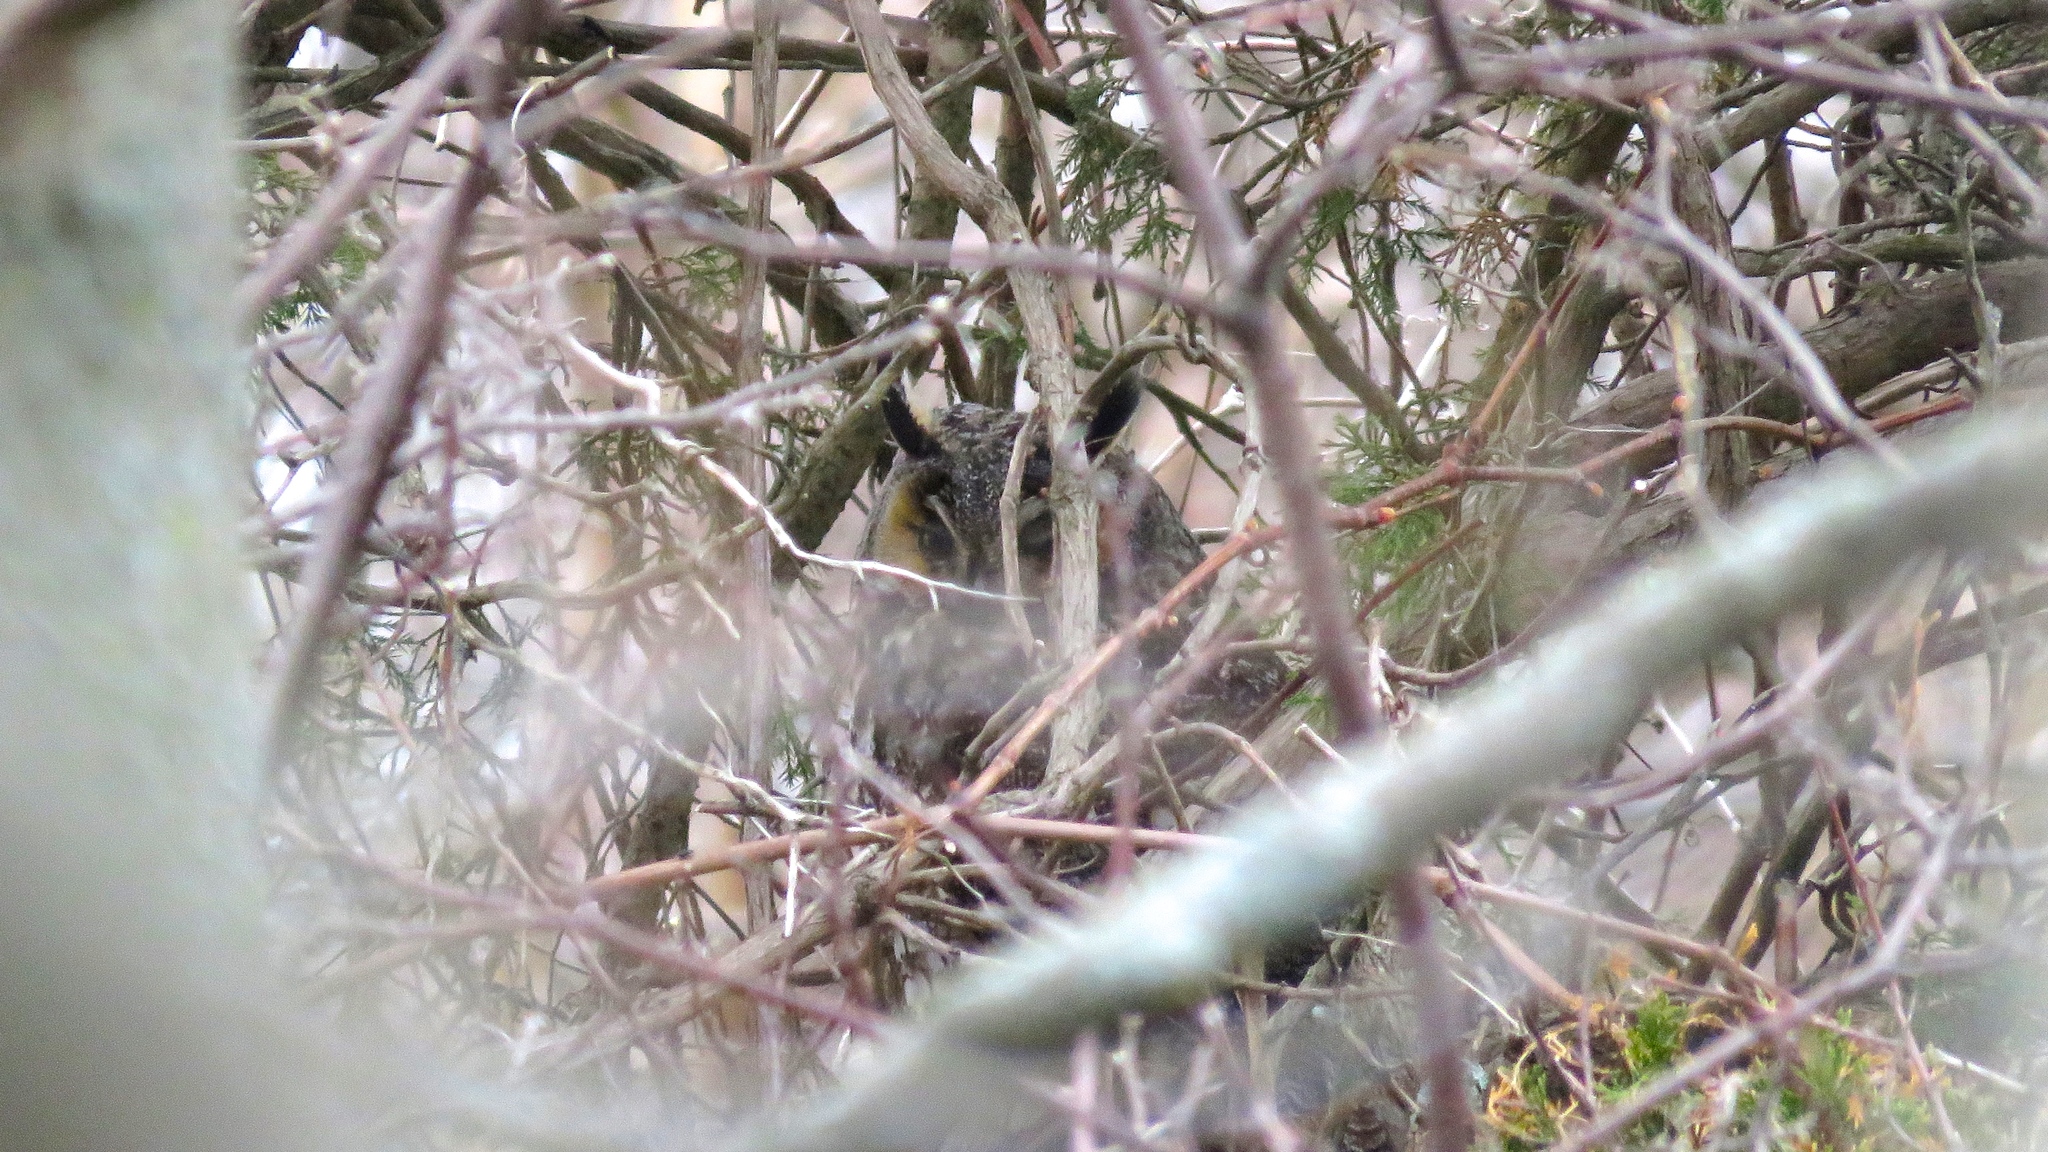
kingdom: Animalia
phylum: Chordata
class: Aves
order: Strigiformes
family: Strigidae
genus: Asio
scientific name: Asio otus
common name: Long-eared owl
